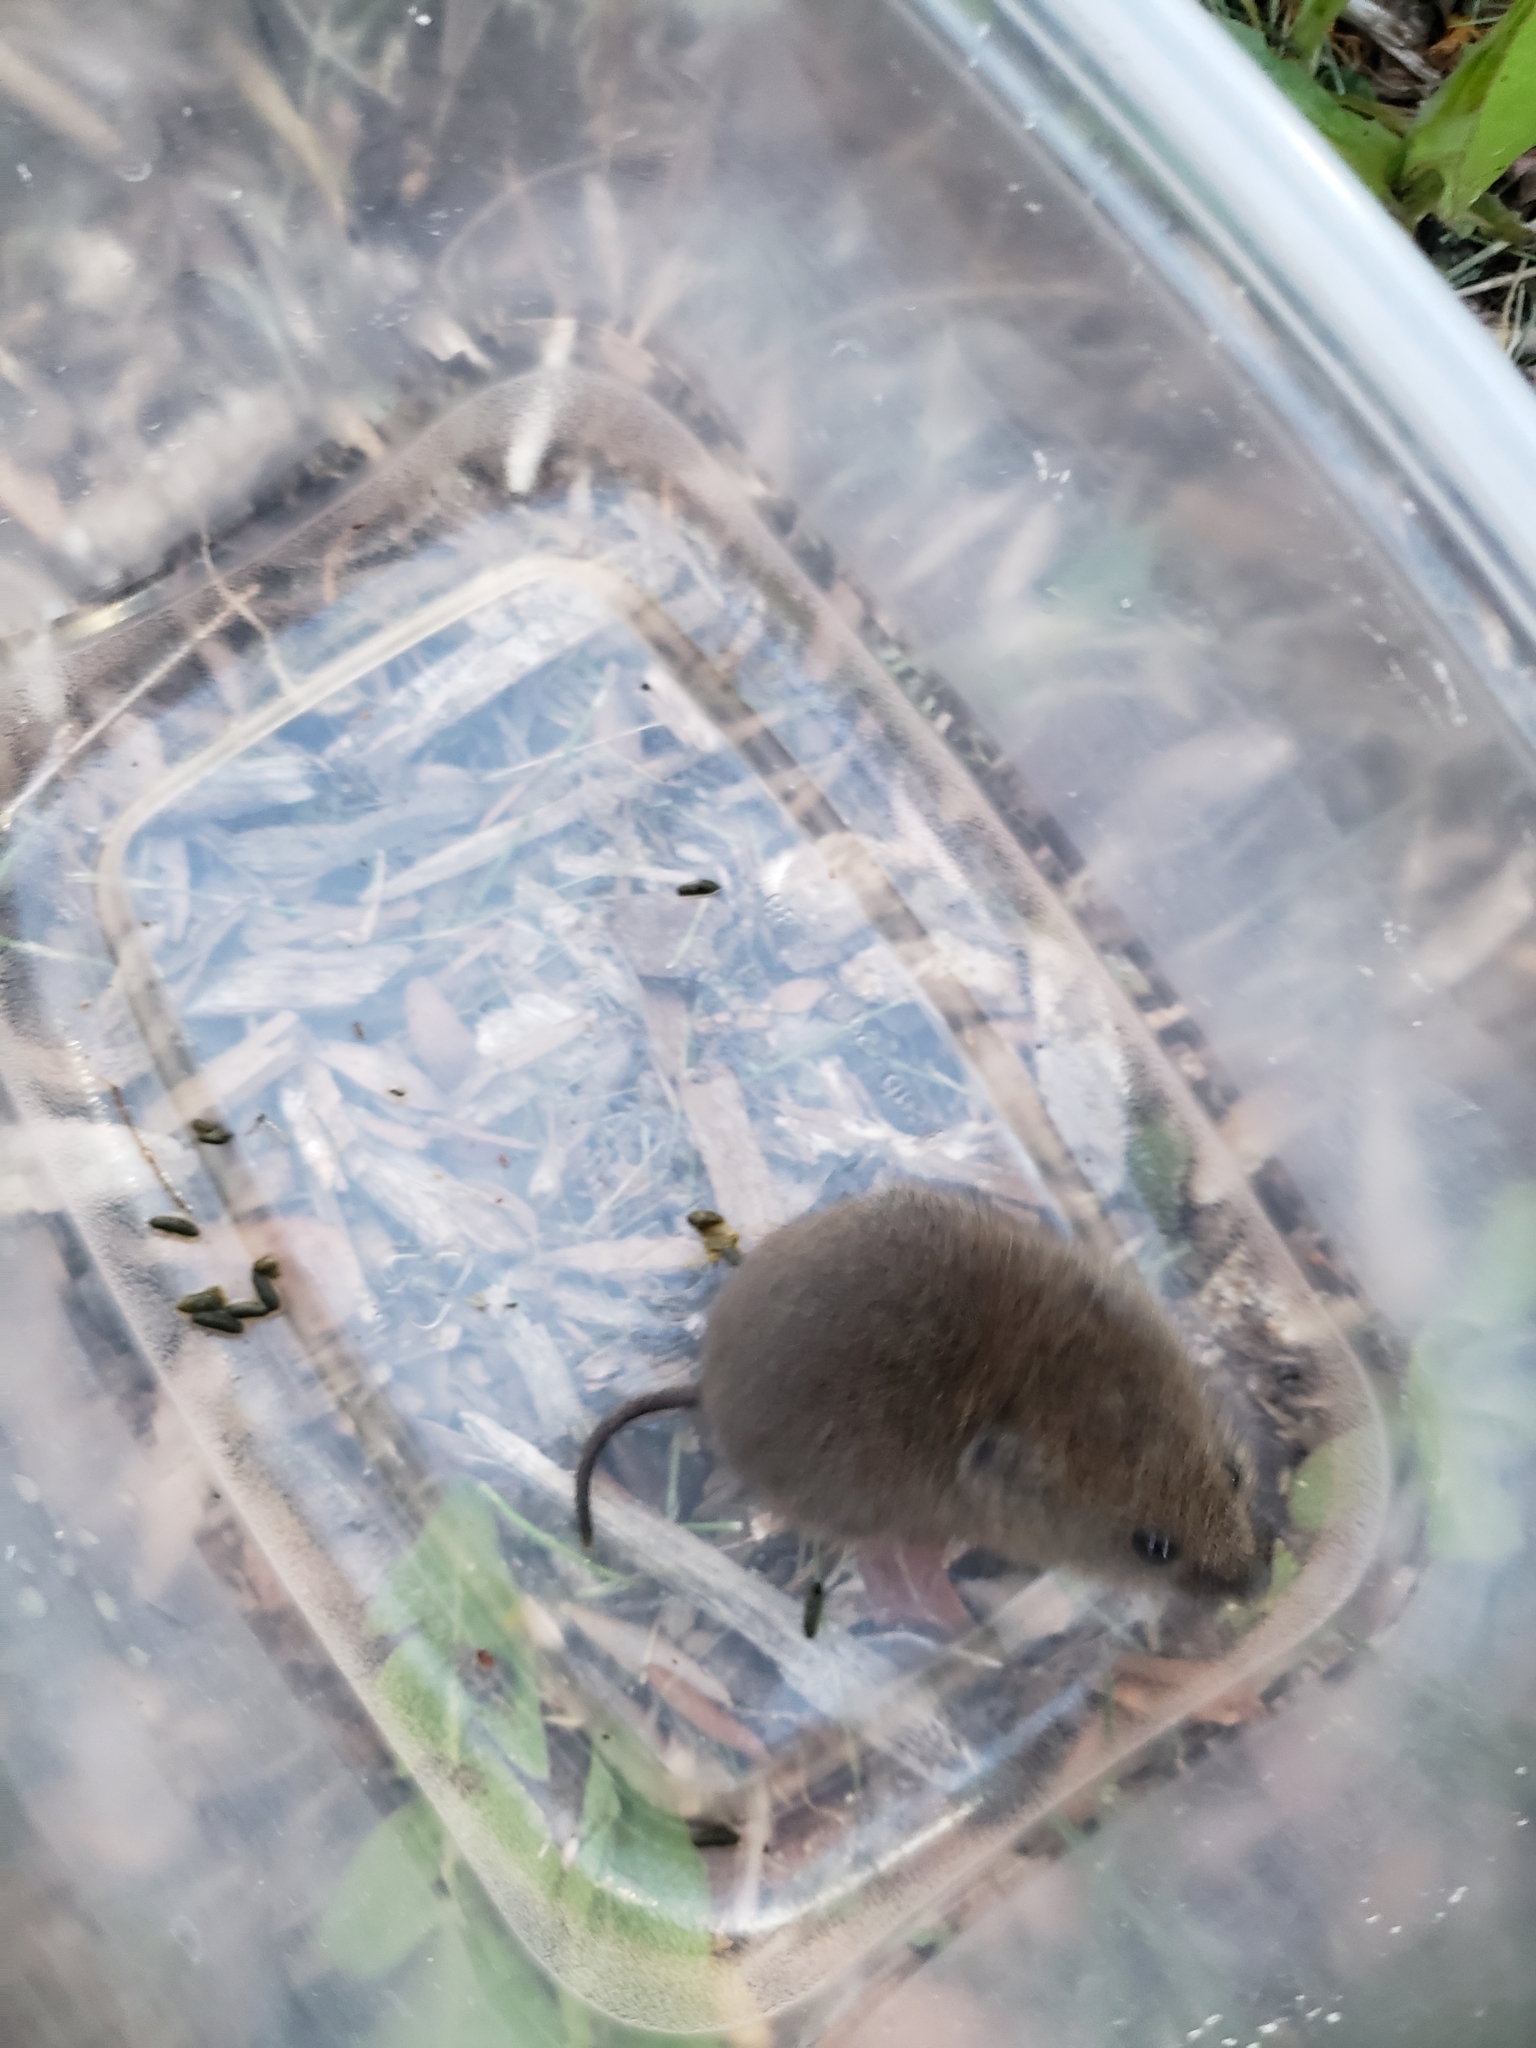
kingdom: Animalia
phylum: Chordata
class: Mammalia
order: Rodentia
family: Cricetidae
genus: Microtus
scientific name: Microtus pennsylvanicus
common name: Meadow vole
